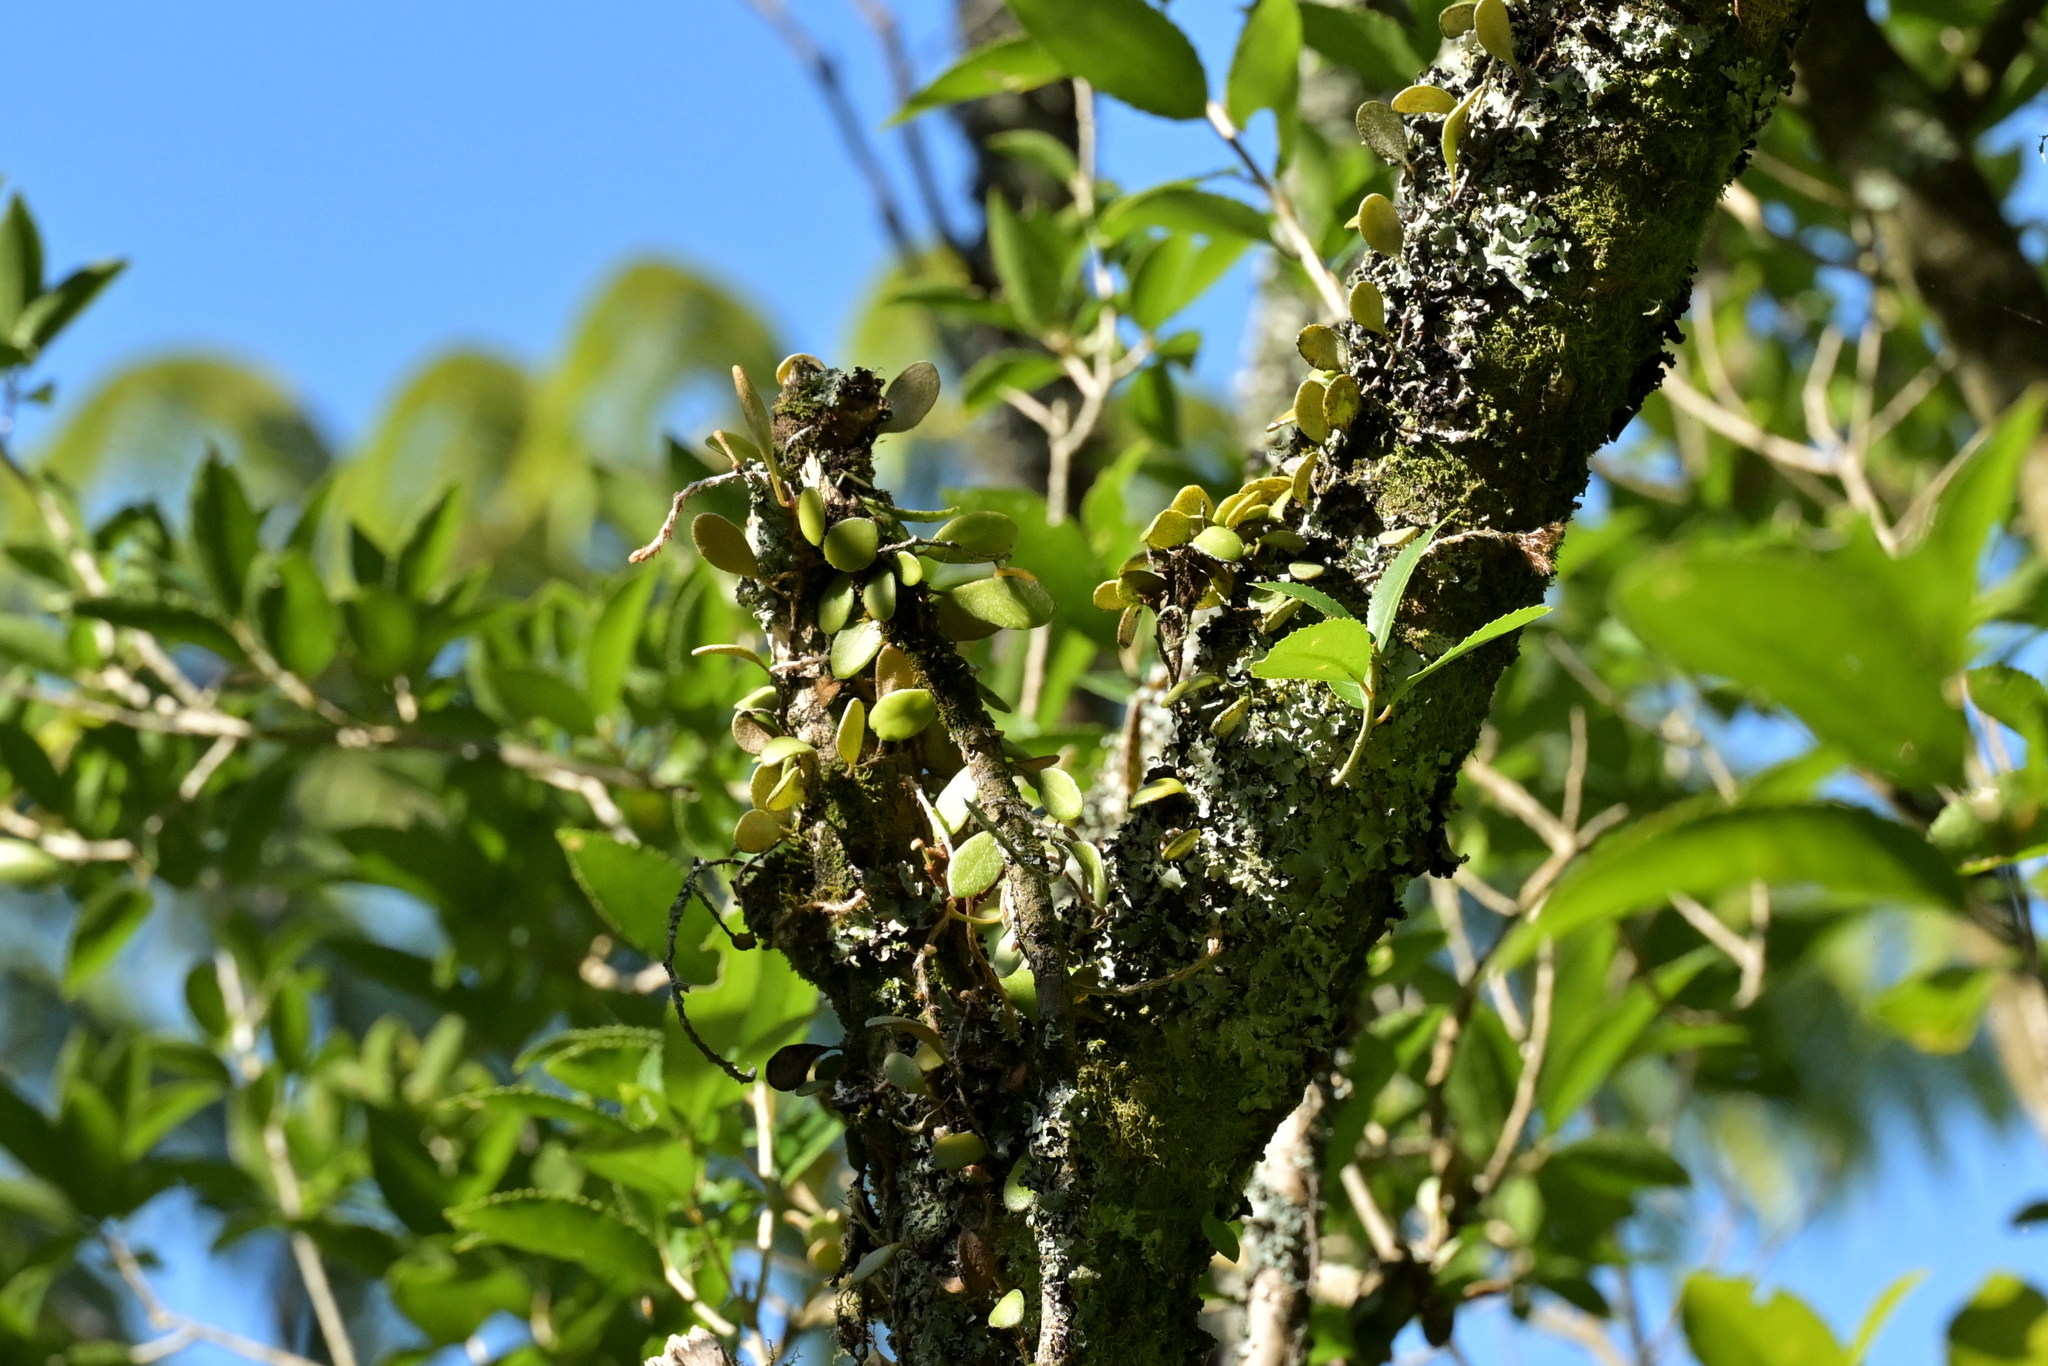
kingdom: Plantae
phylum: Tracheophyta
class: Polypodiopsida
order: Polypodiales
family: Polypodiaceae
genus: Pyrrosia
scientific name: Pyrrosia eleagnifolia
